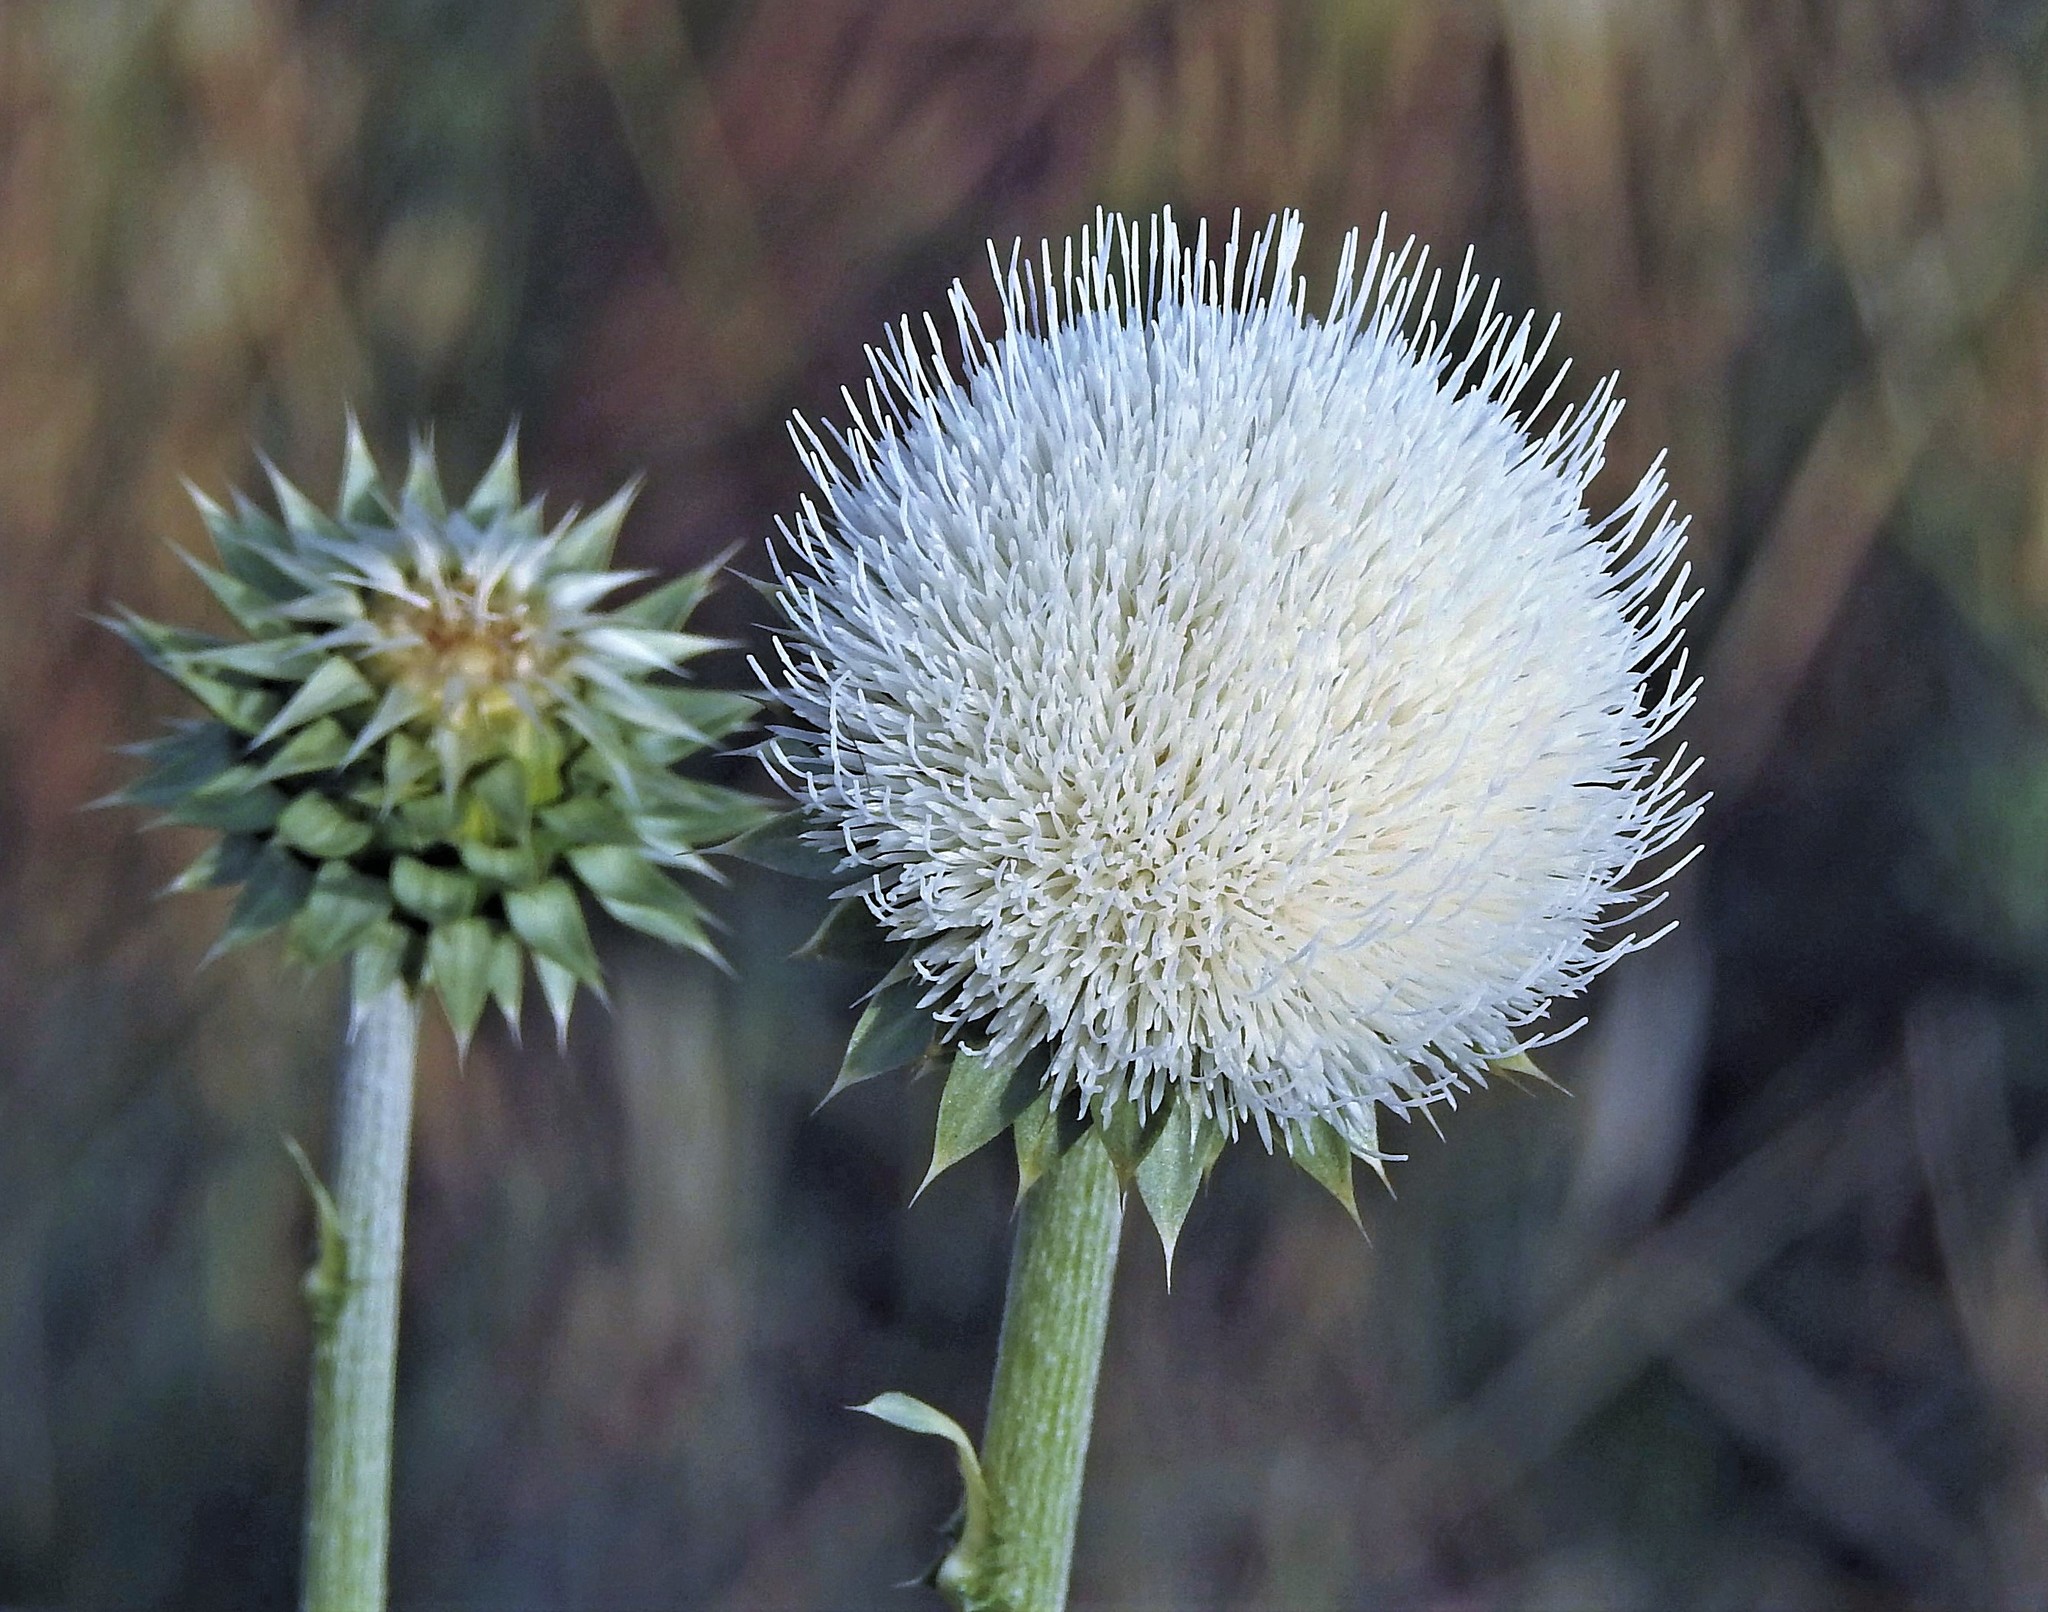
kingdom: Plantae
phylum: Tracheophyta
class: Magnoliopsida
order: Asterales
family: Asteraceae
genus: Carduus
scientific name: Carduus nutans
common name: Musk thistle
